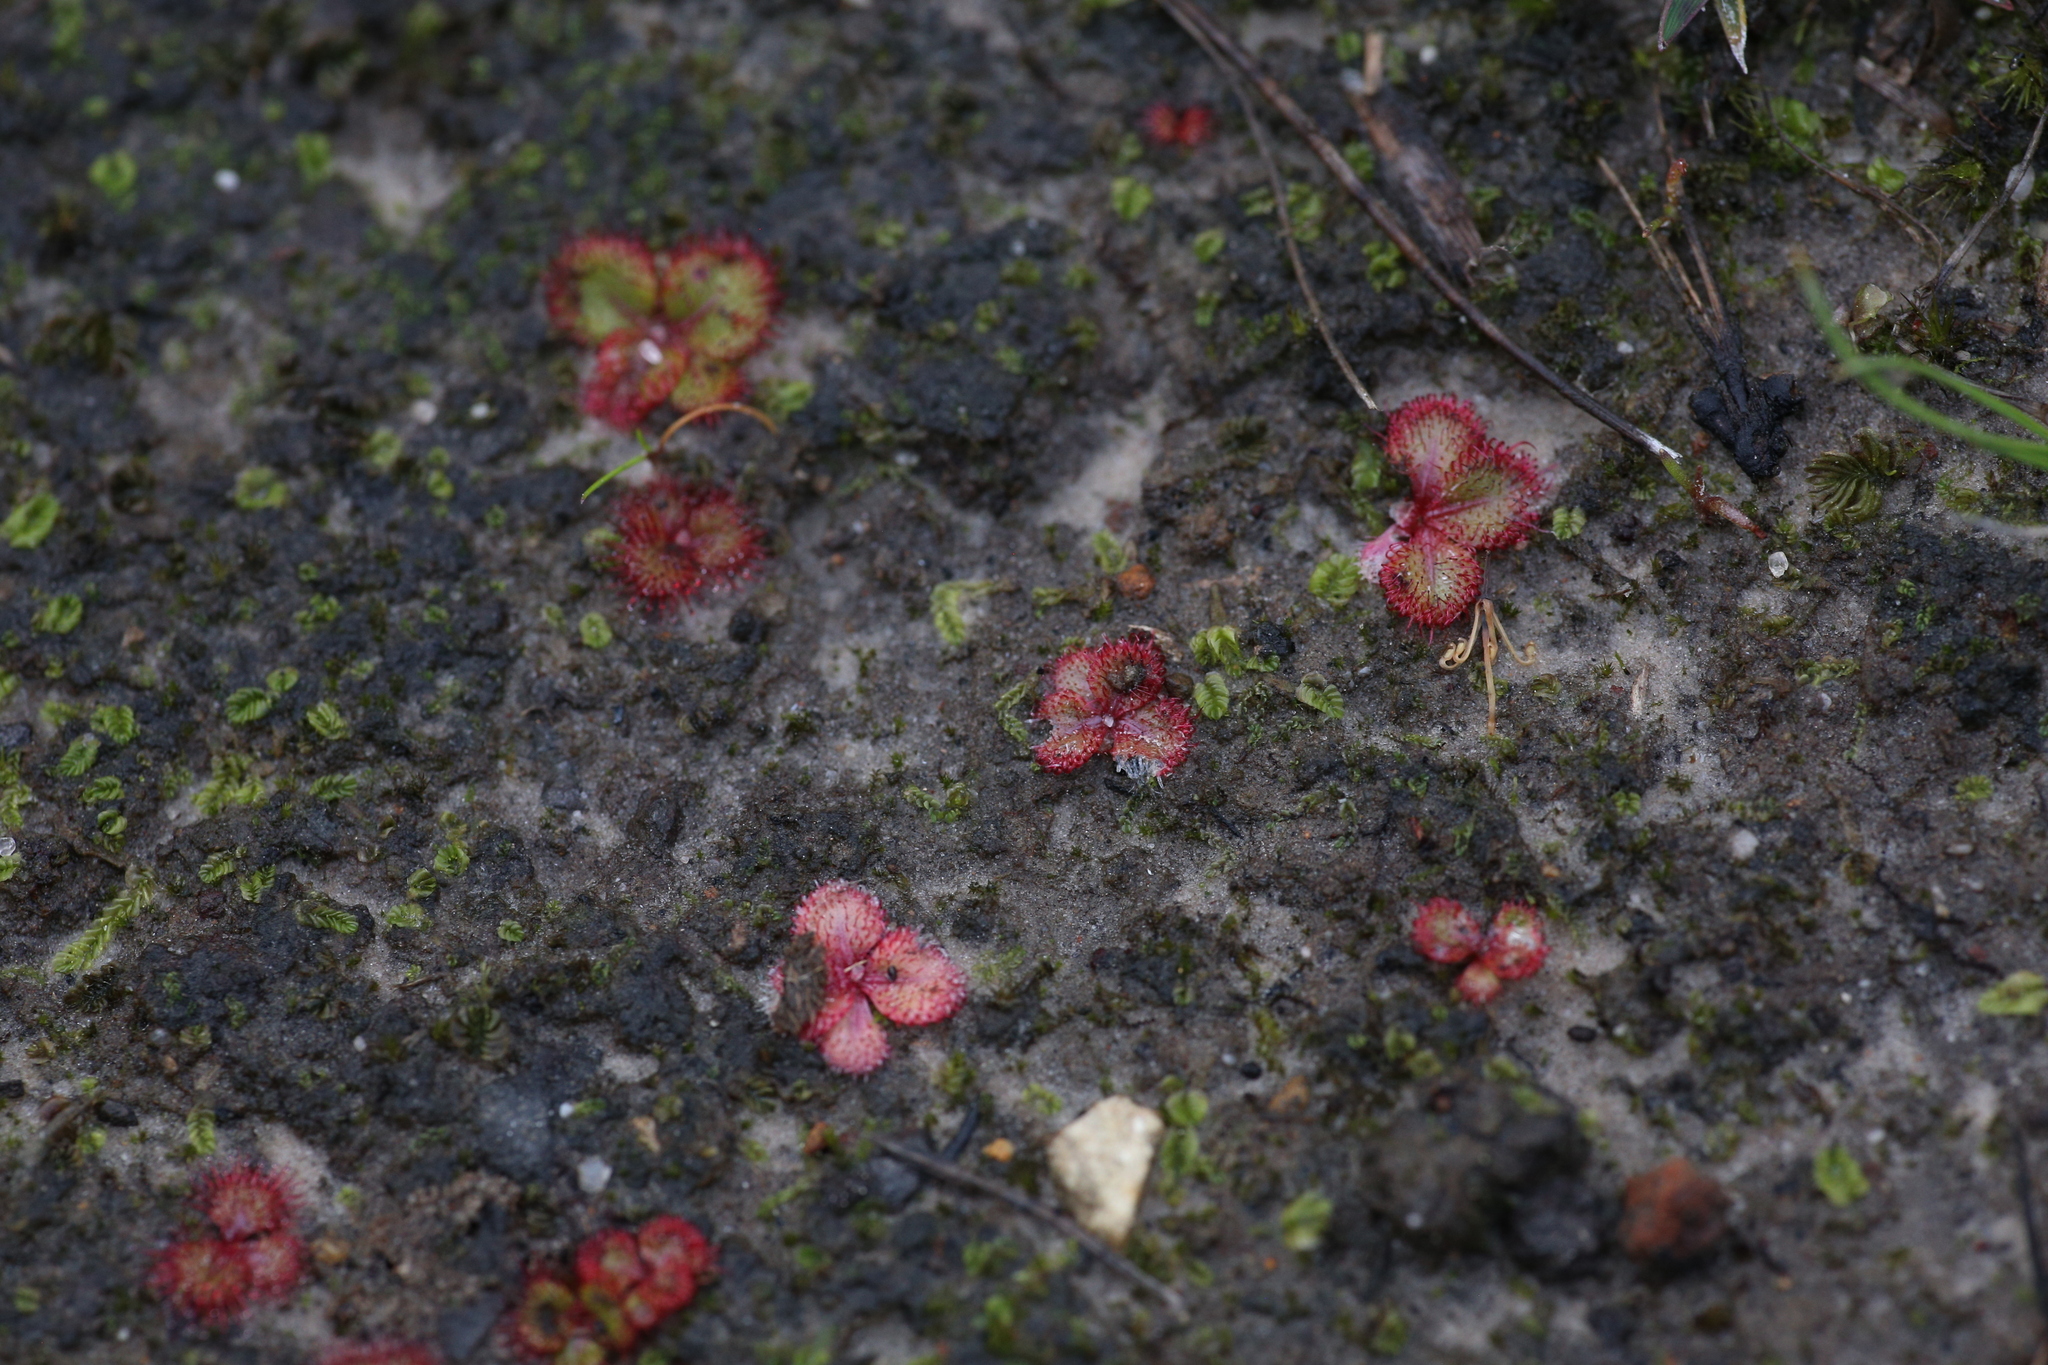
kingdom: Plantae
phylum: Tracheophyta
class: Magnoliopsida
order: Caryophyllales
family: Droseraceae
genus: Drosera
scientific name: Drosera tubaestylis
